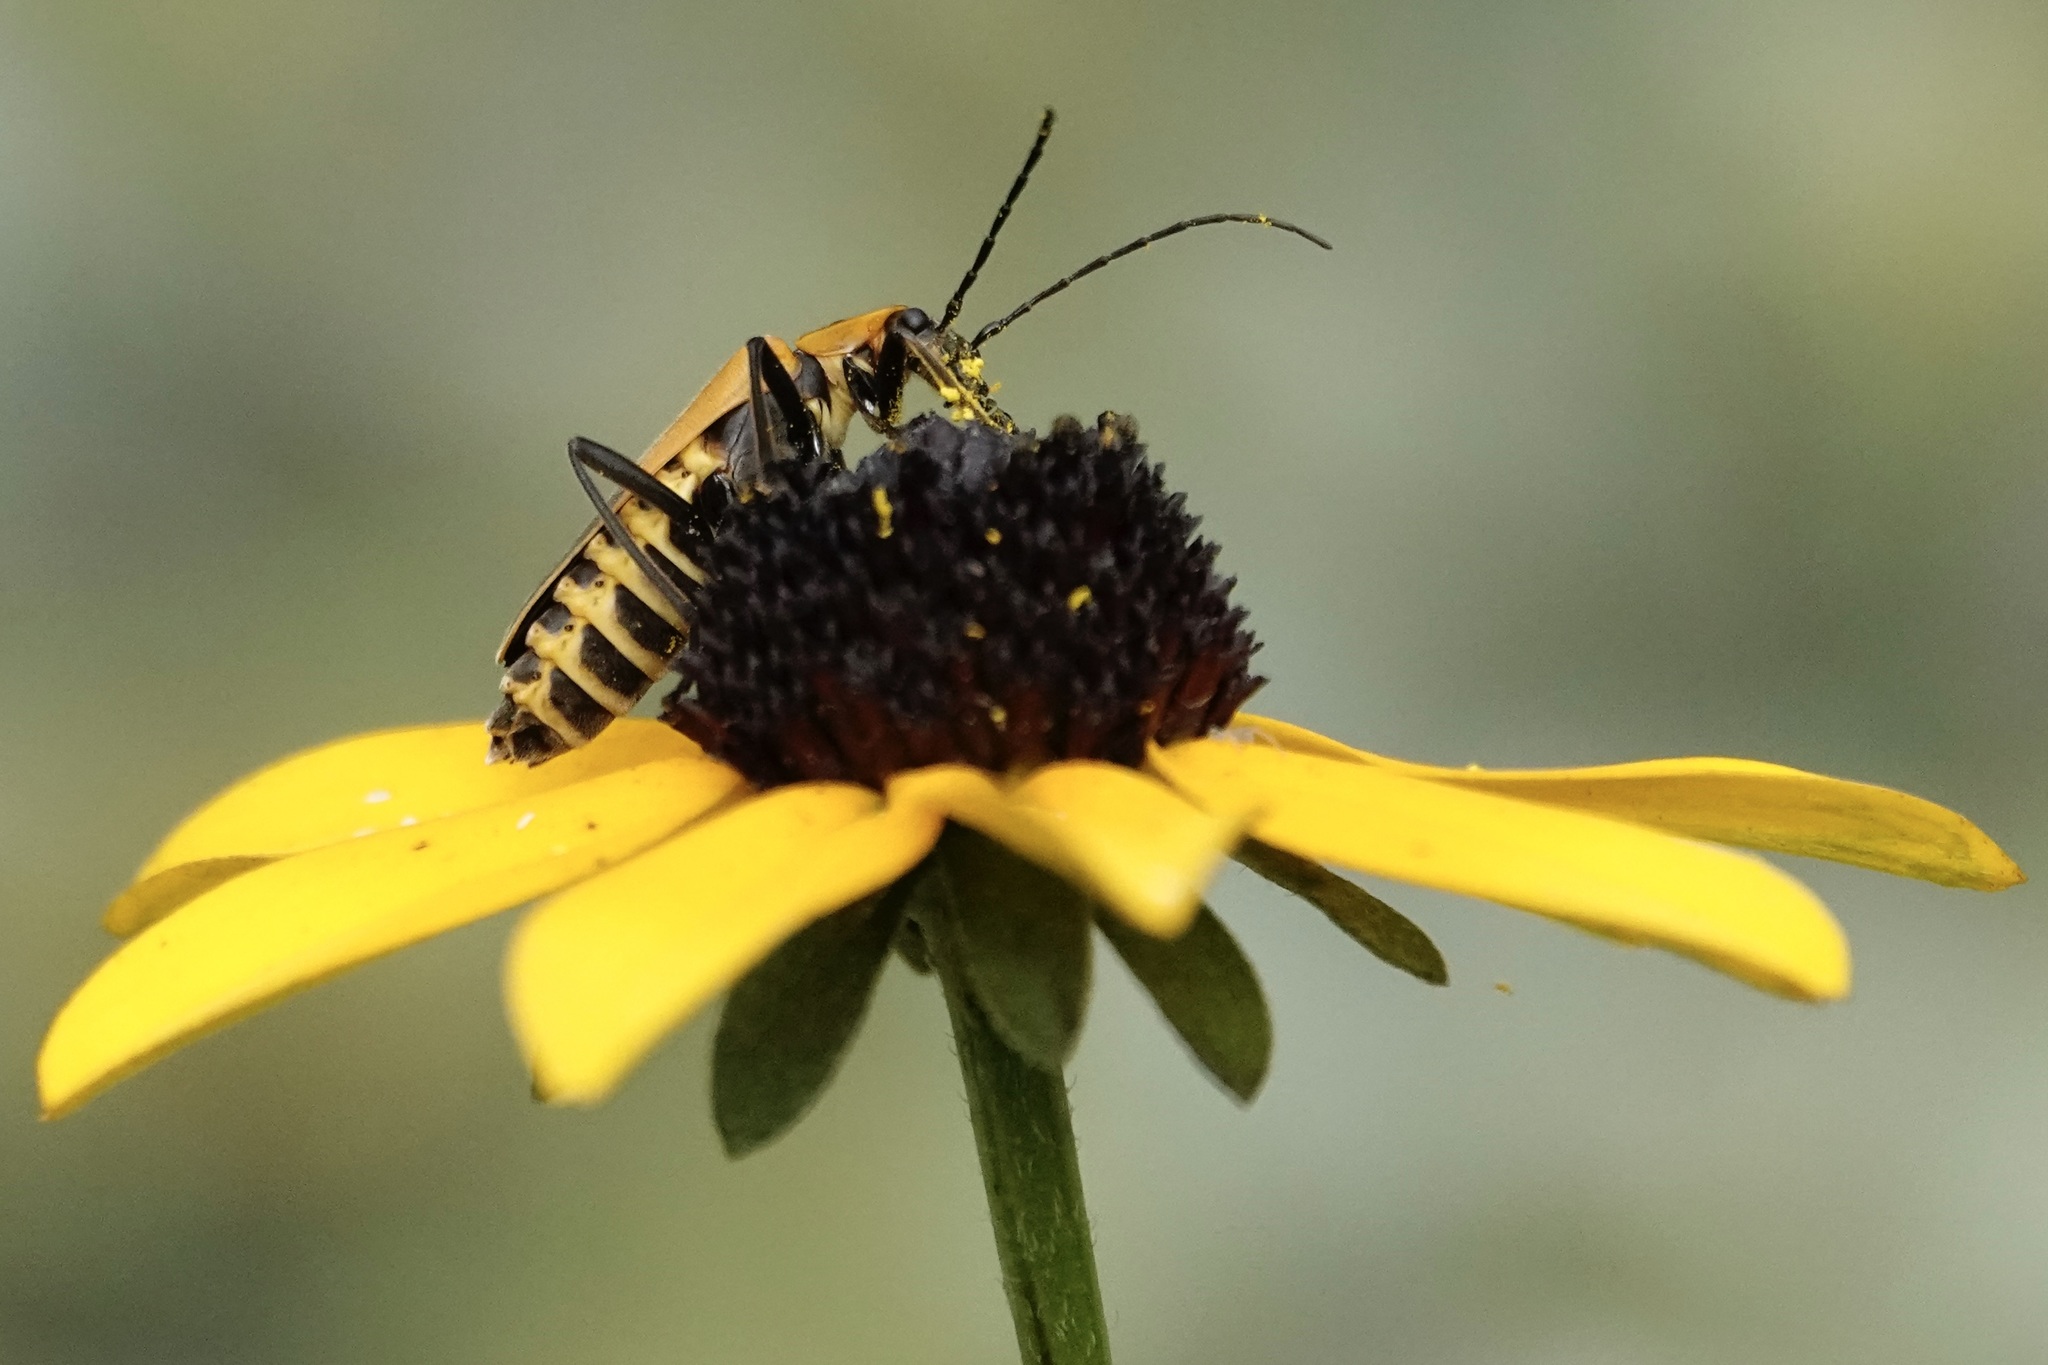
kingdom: Animalia
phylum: Arthropoda
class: Insecta
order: Coleoptera
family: Cantharidae
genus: Chauliognathus
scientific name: Chauliognathus pensylvanicus
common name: Goldenrod soldier beetle
